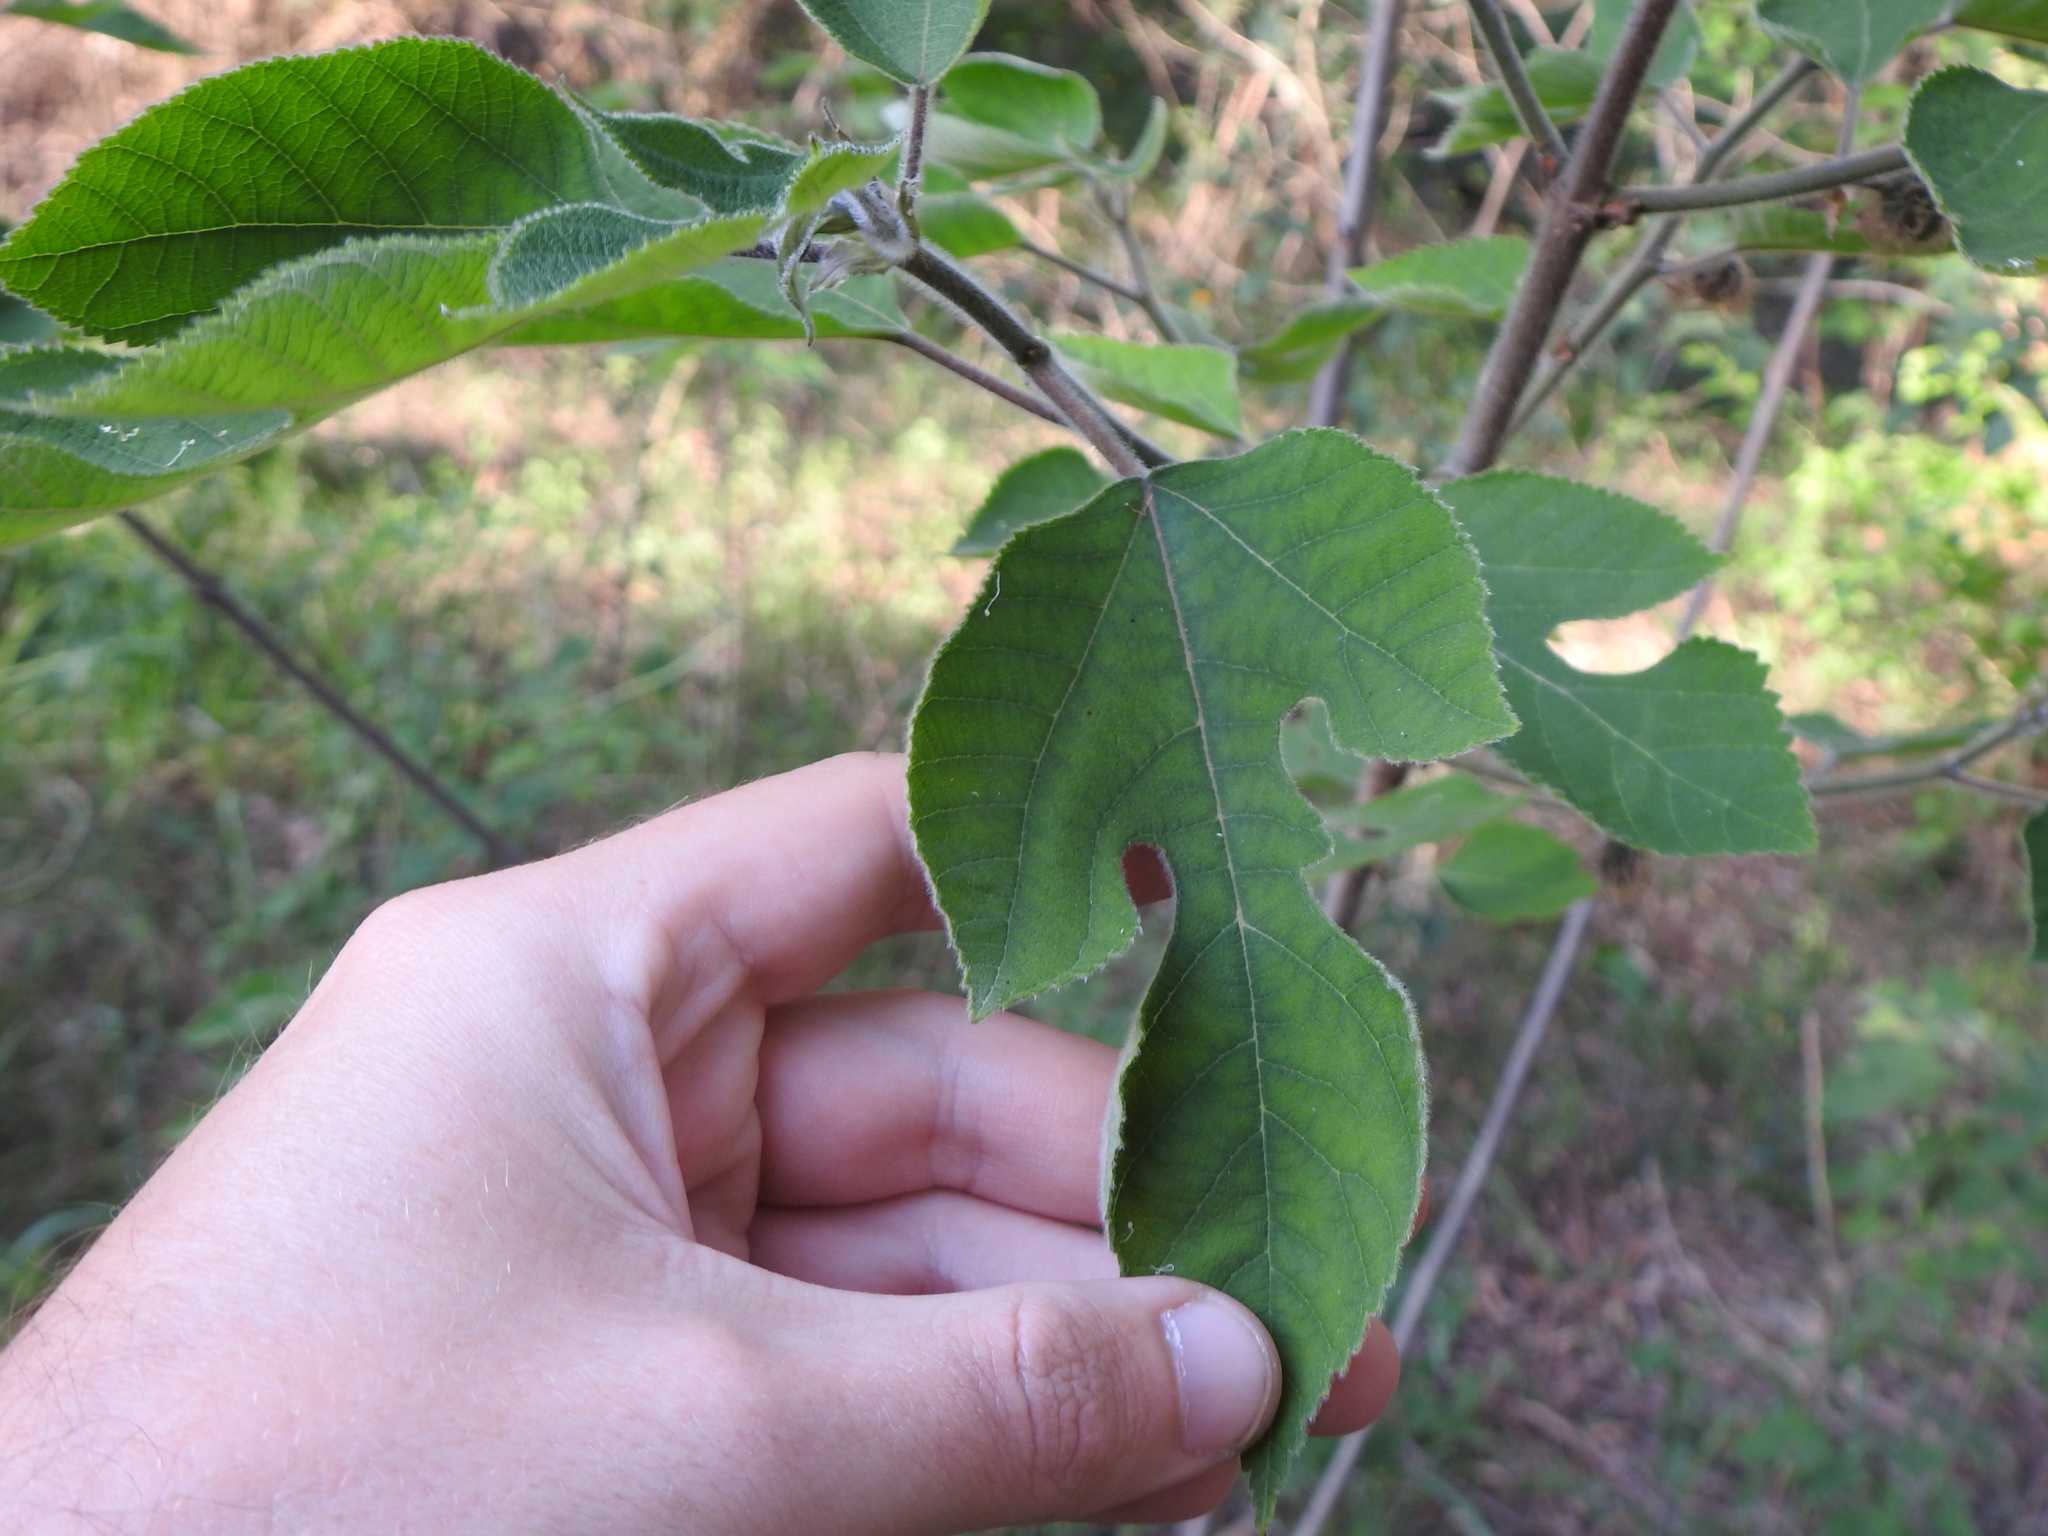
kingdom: Plantae
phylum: Tracheophyta
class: Magnoliopsida
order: Rosales
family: Moraceae
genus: Broussonetia
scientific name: Broussonetia papyrifera
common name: Paper mulberry
